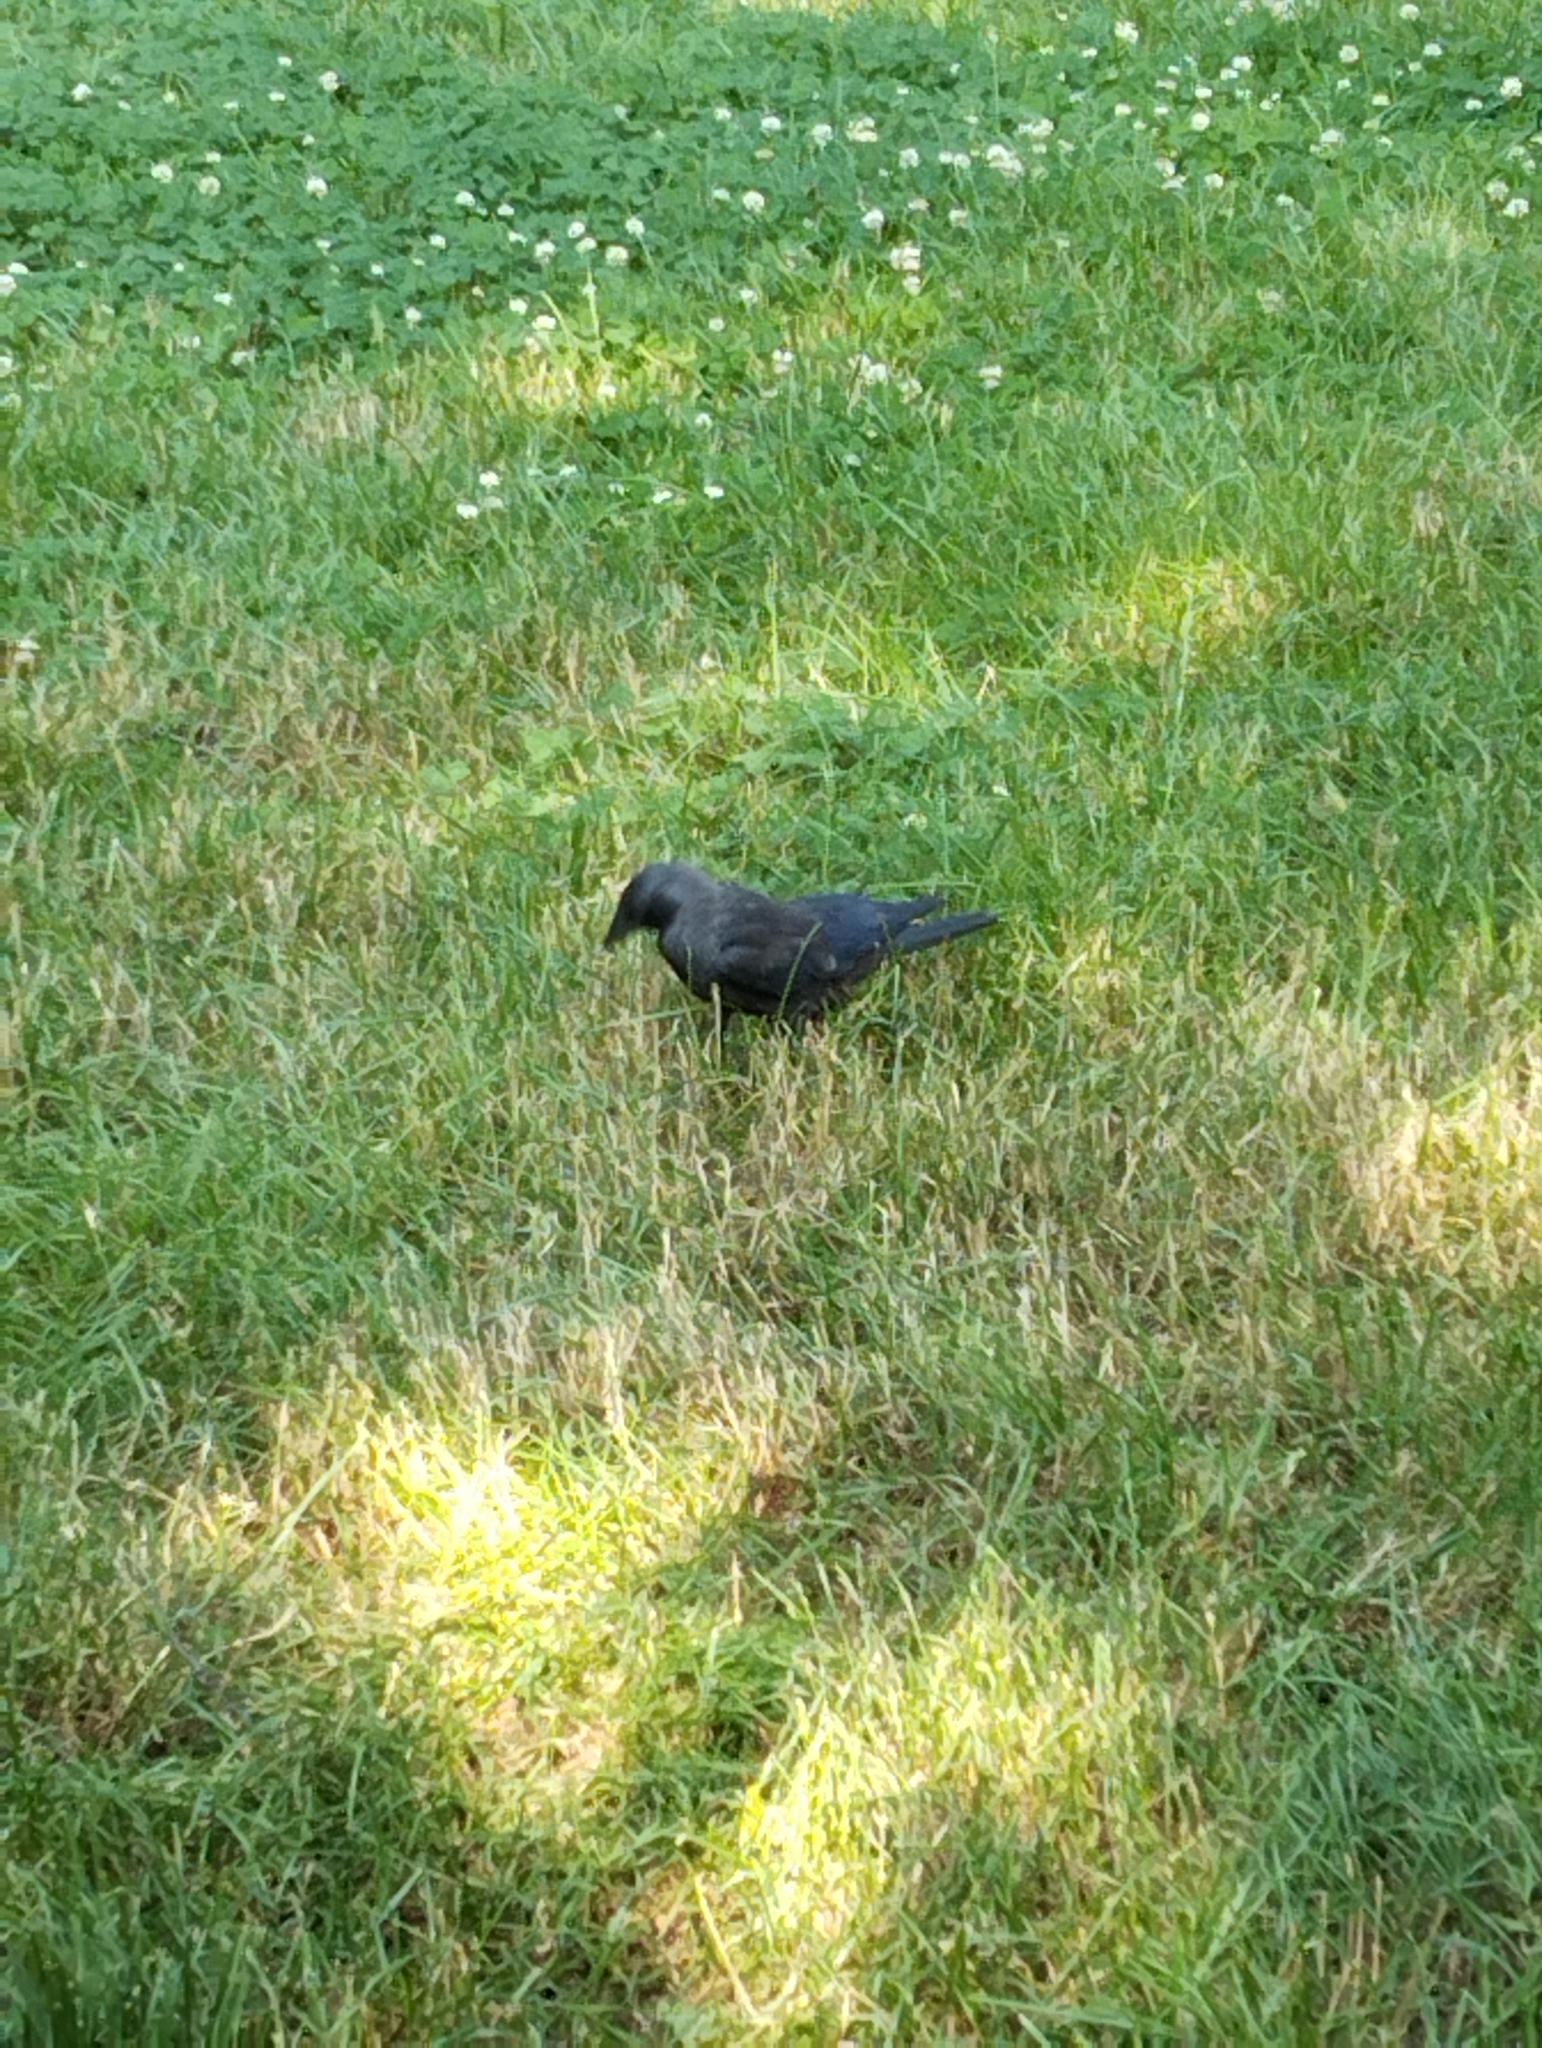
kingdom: Animalia
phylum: Chordata
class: Aves
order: Passeriformes
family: Corvidae
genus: Coloeus
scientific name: Coloeus monedula
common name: Western jackdaw
